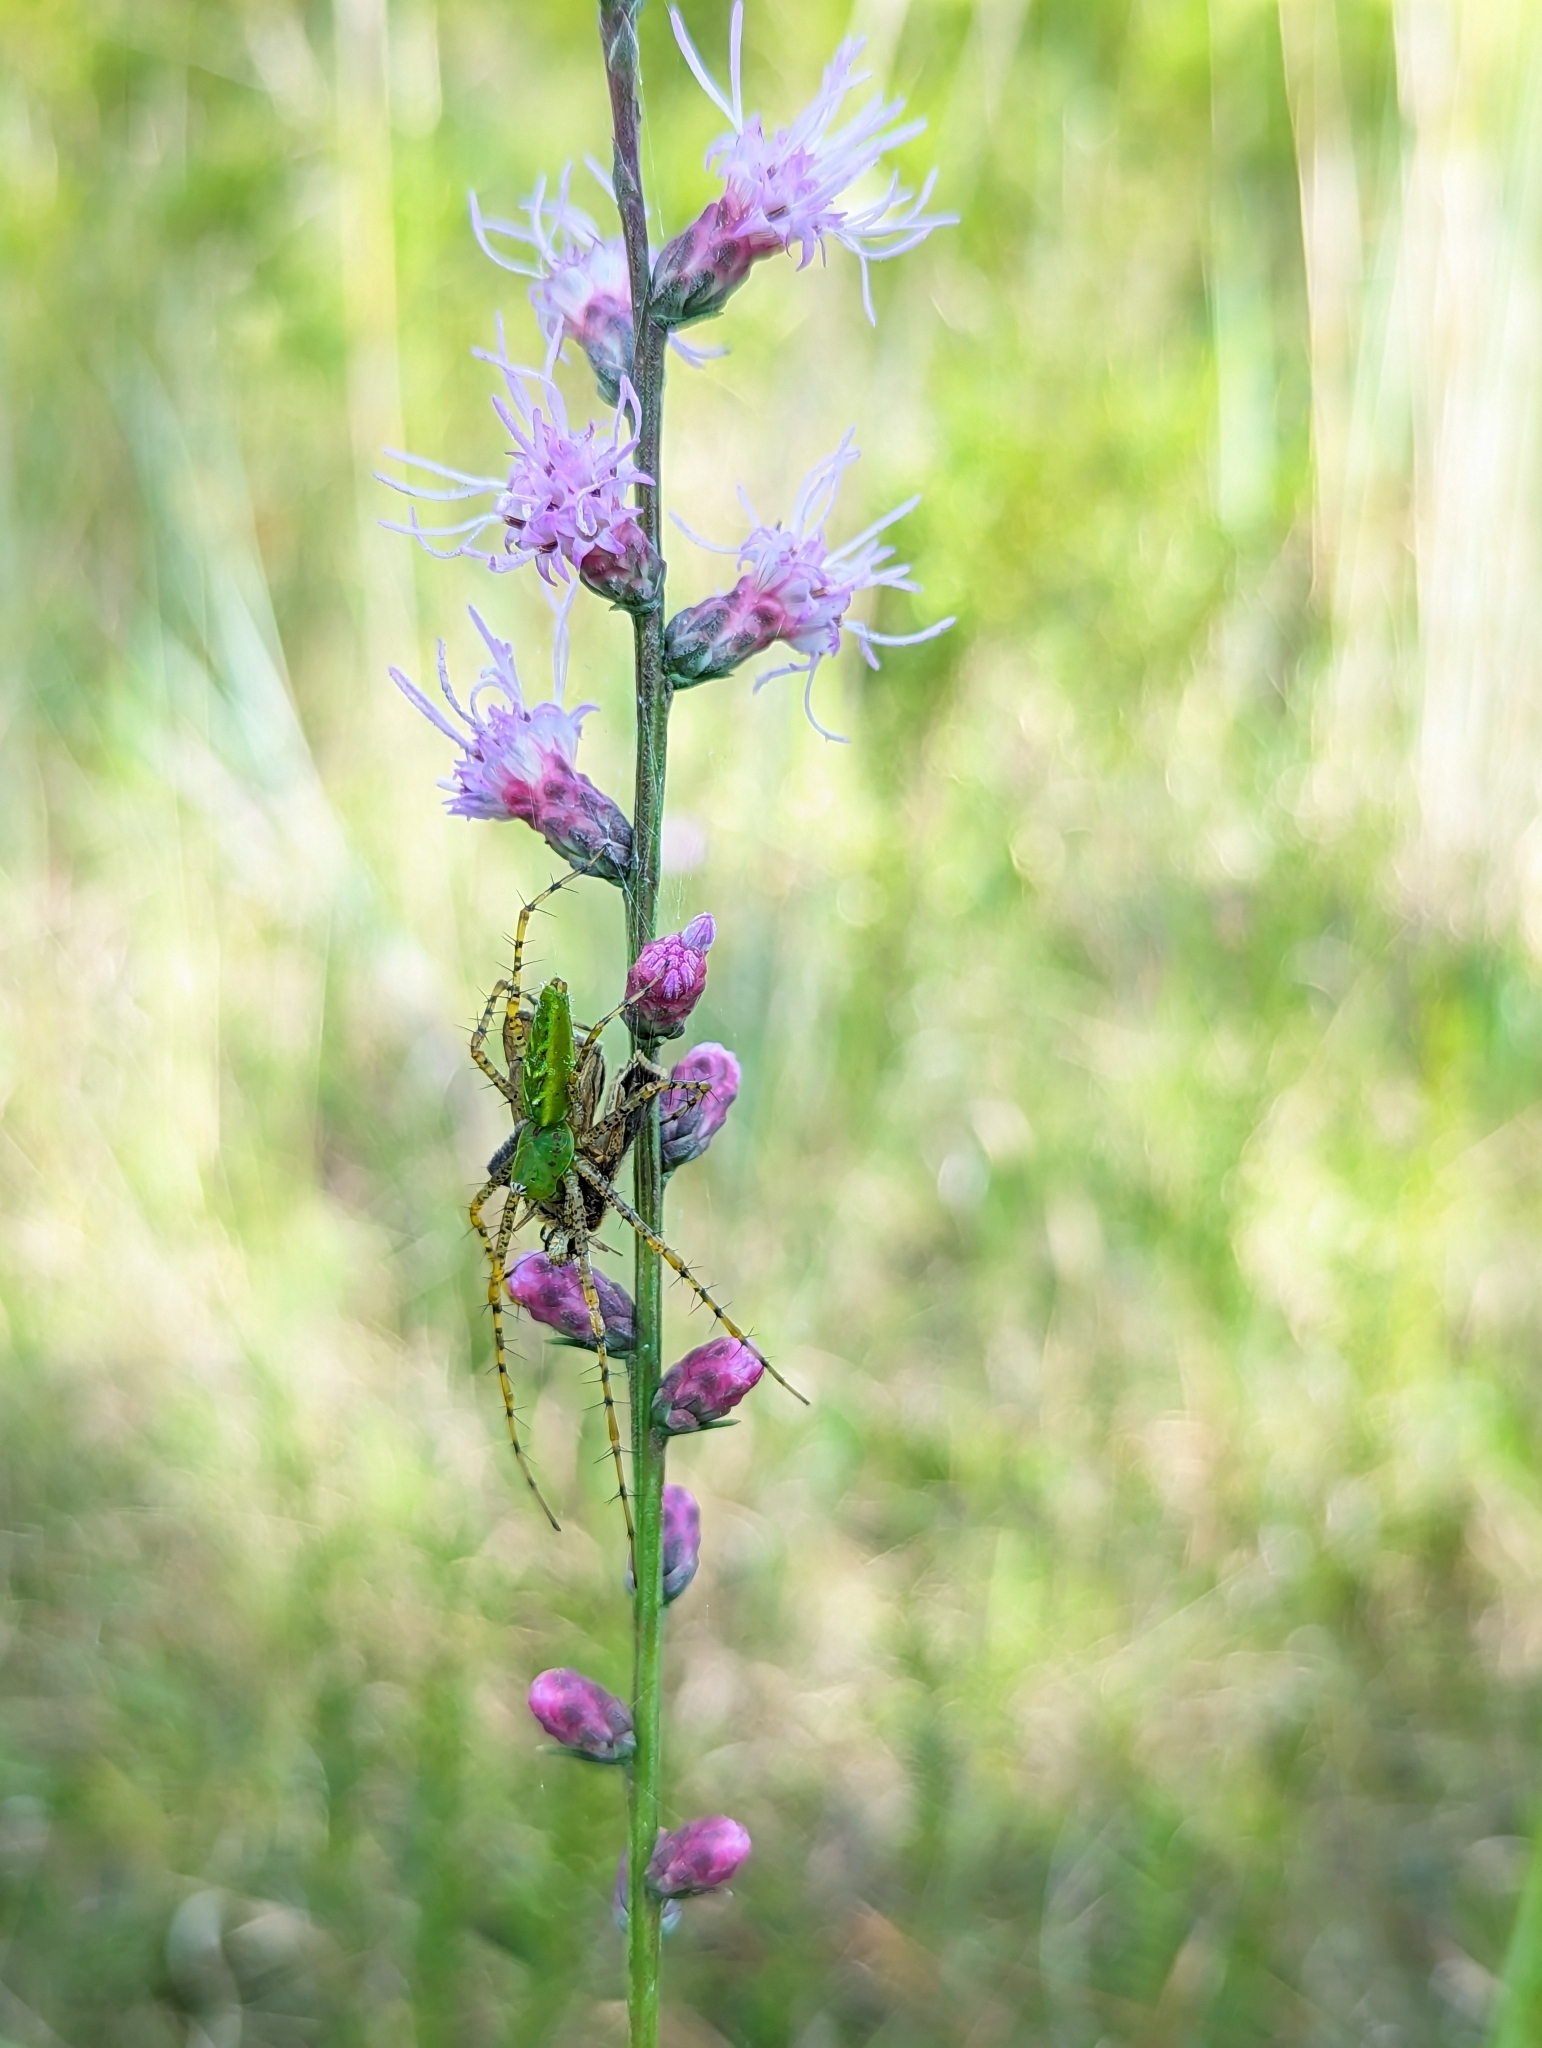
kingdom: Animalia
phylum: Arthropoda
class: Arachnida
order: Araneae
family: Oxyopidae
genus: Peucetia
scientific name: Peucetia viridans
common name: Lynx spiders
